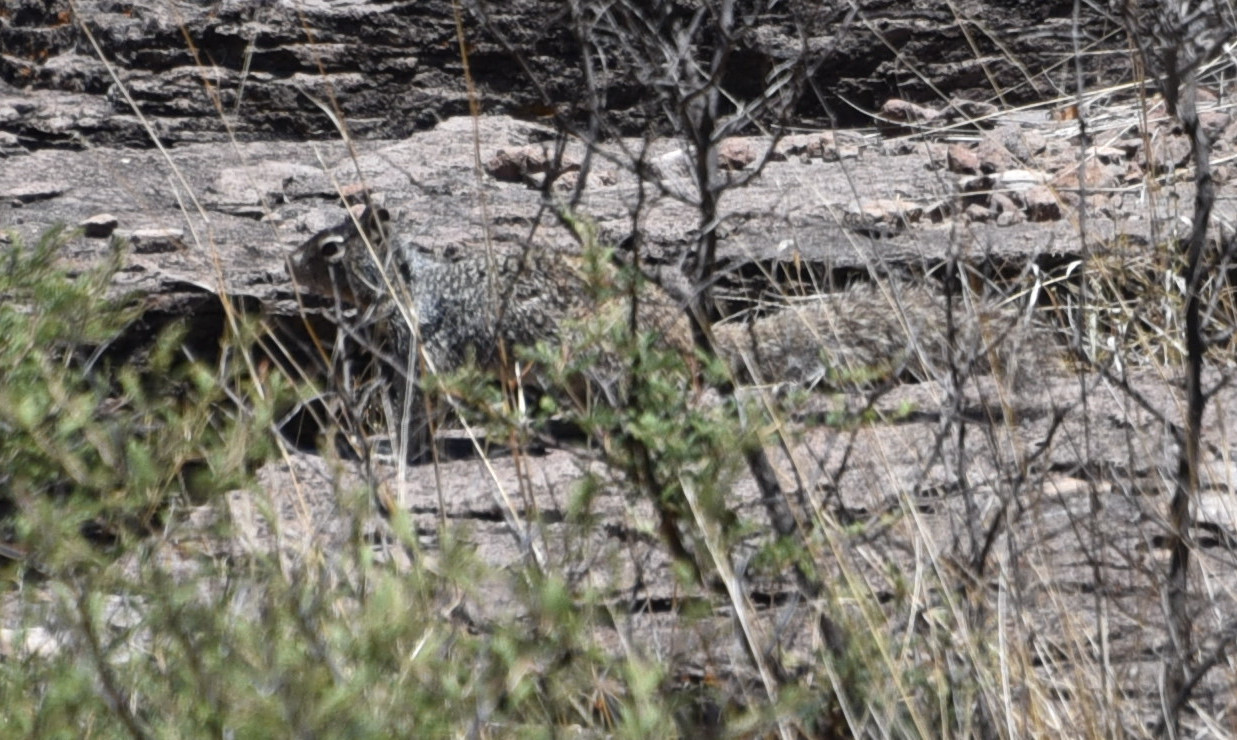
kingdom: Animalia
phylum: Chordata
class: Mammalia
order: Rodentia
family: Sciuridae
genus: Otospermophilus
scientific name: Otospermophilus variegatus
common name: Rock squirrel
